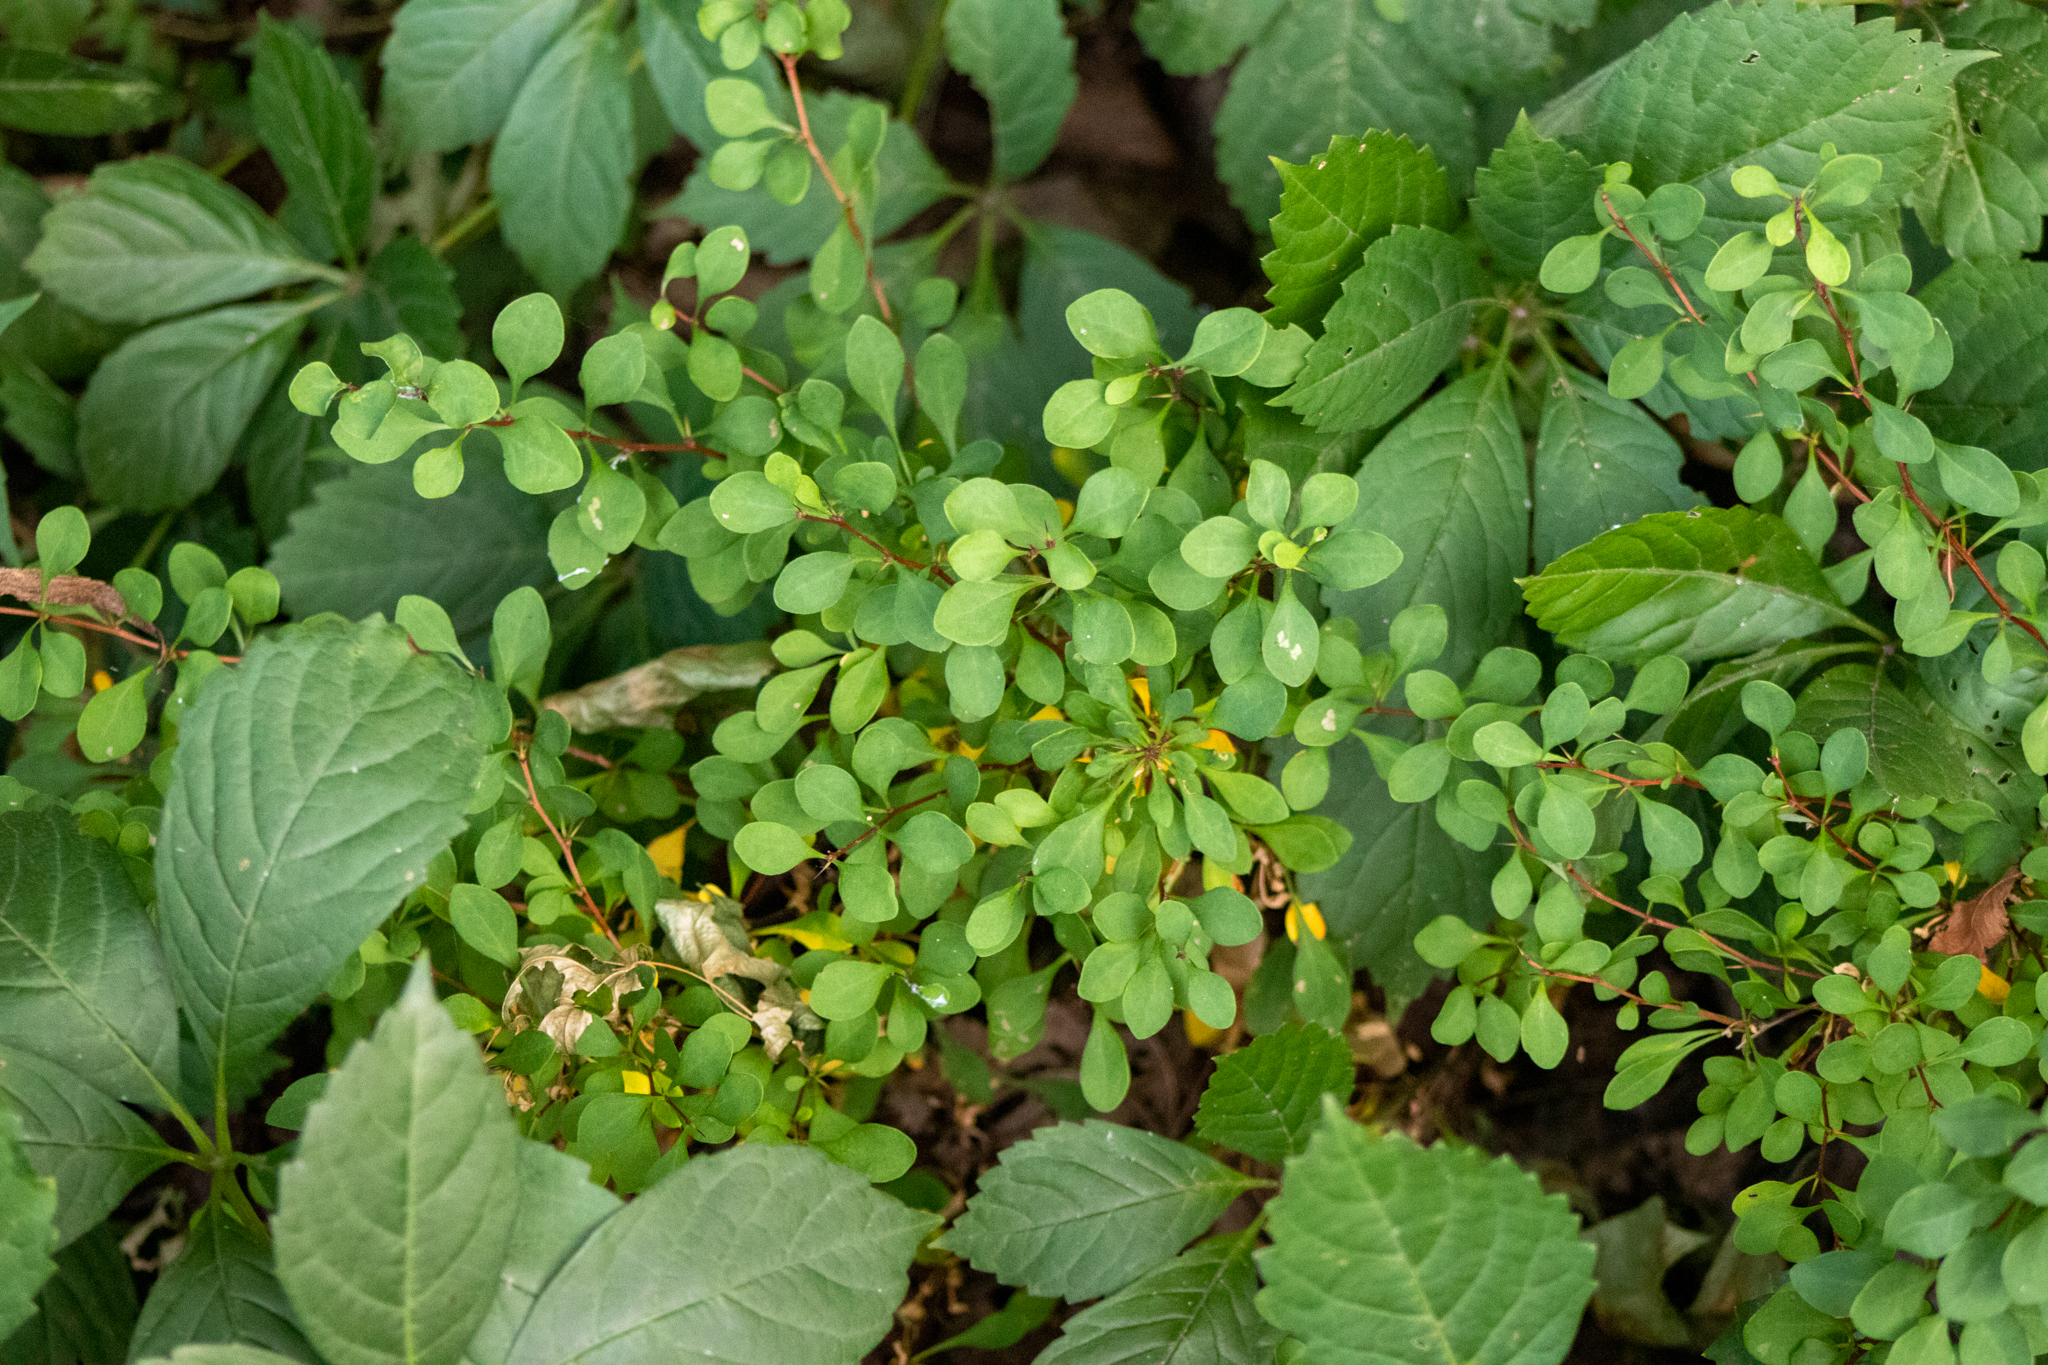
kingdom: Plantae
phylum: Tracheophyta
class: Magnoliopsida
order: Ranunculales
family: Berberidaceae
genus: Berberis
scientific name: Berberis thunbergii
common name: Japanese barberry
